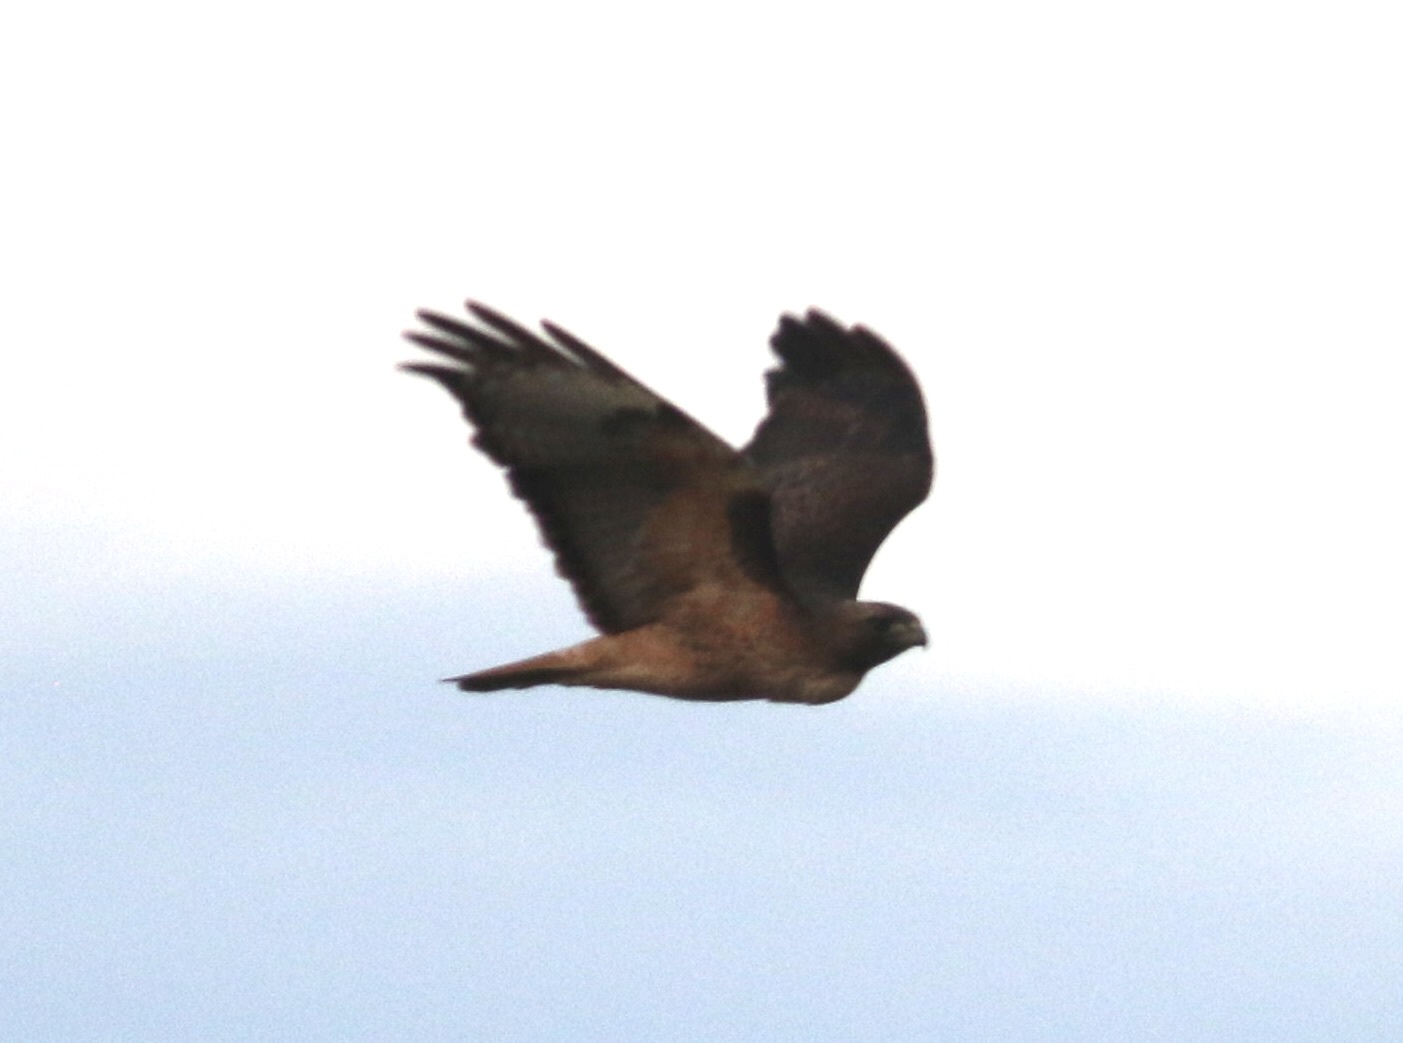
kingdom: Animalia
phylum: Chordata
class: Aves
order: Accipitriformes
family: Accipitridae
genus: Buteo
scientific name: Buteo jamaicensis
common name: Red-tailed hawk
